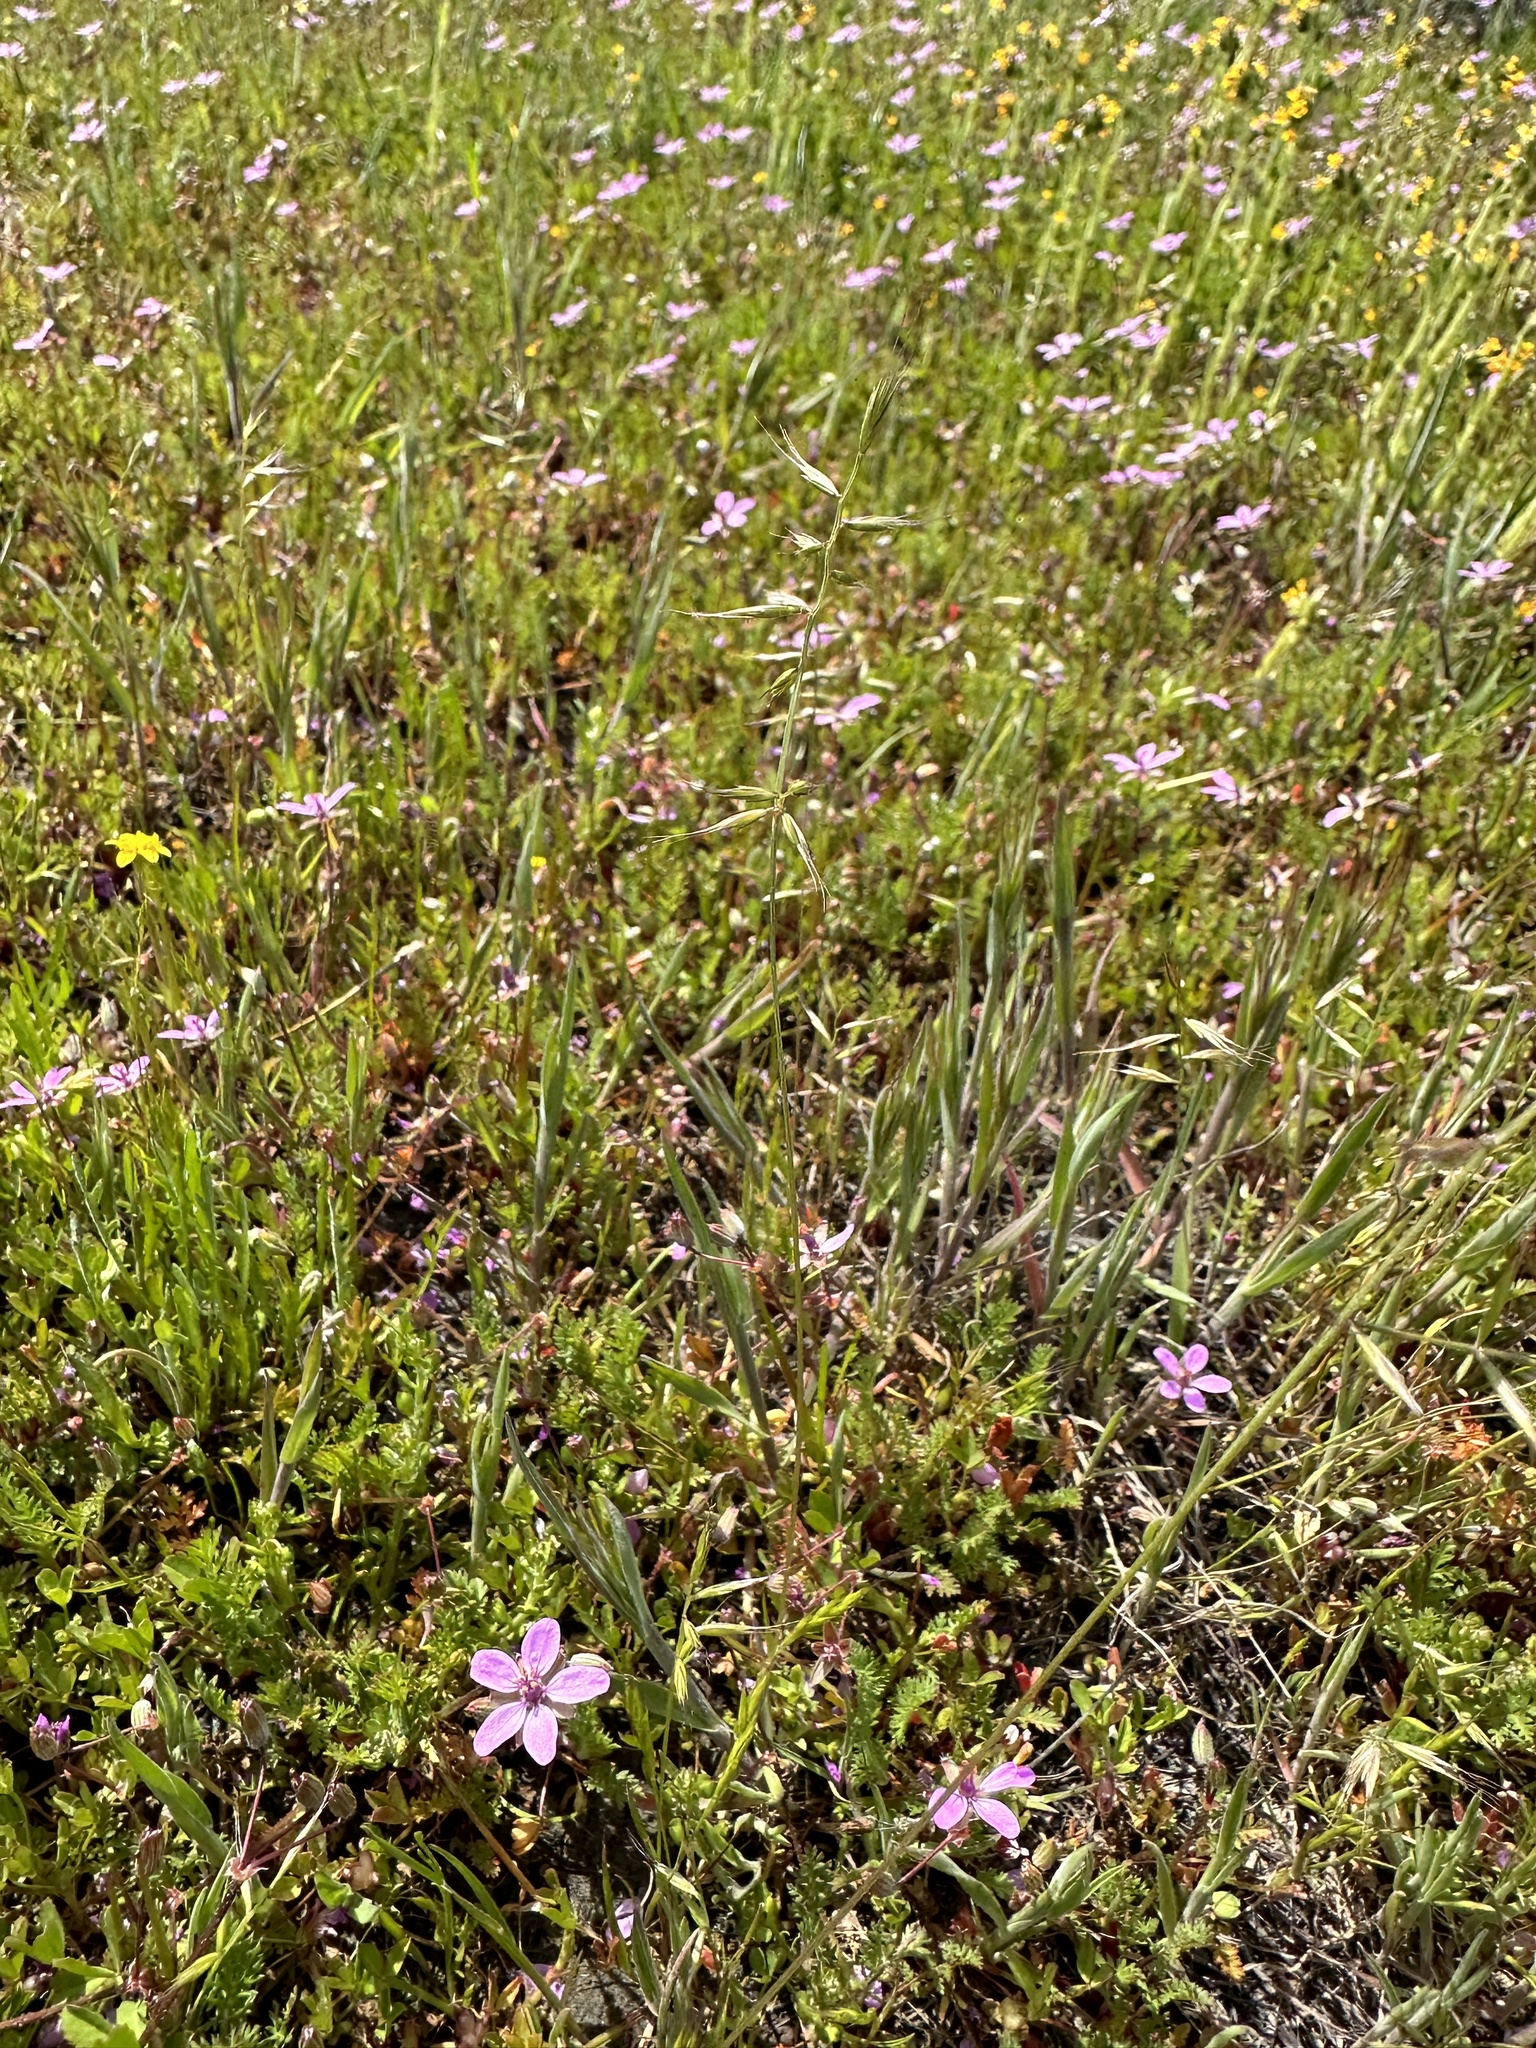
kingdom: Plantae
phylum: Tracheophyta
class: Liliopsida
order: Poales
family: Poaceae
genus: Festuca
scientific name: Festuca microstachys
